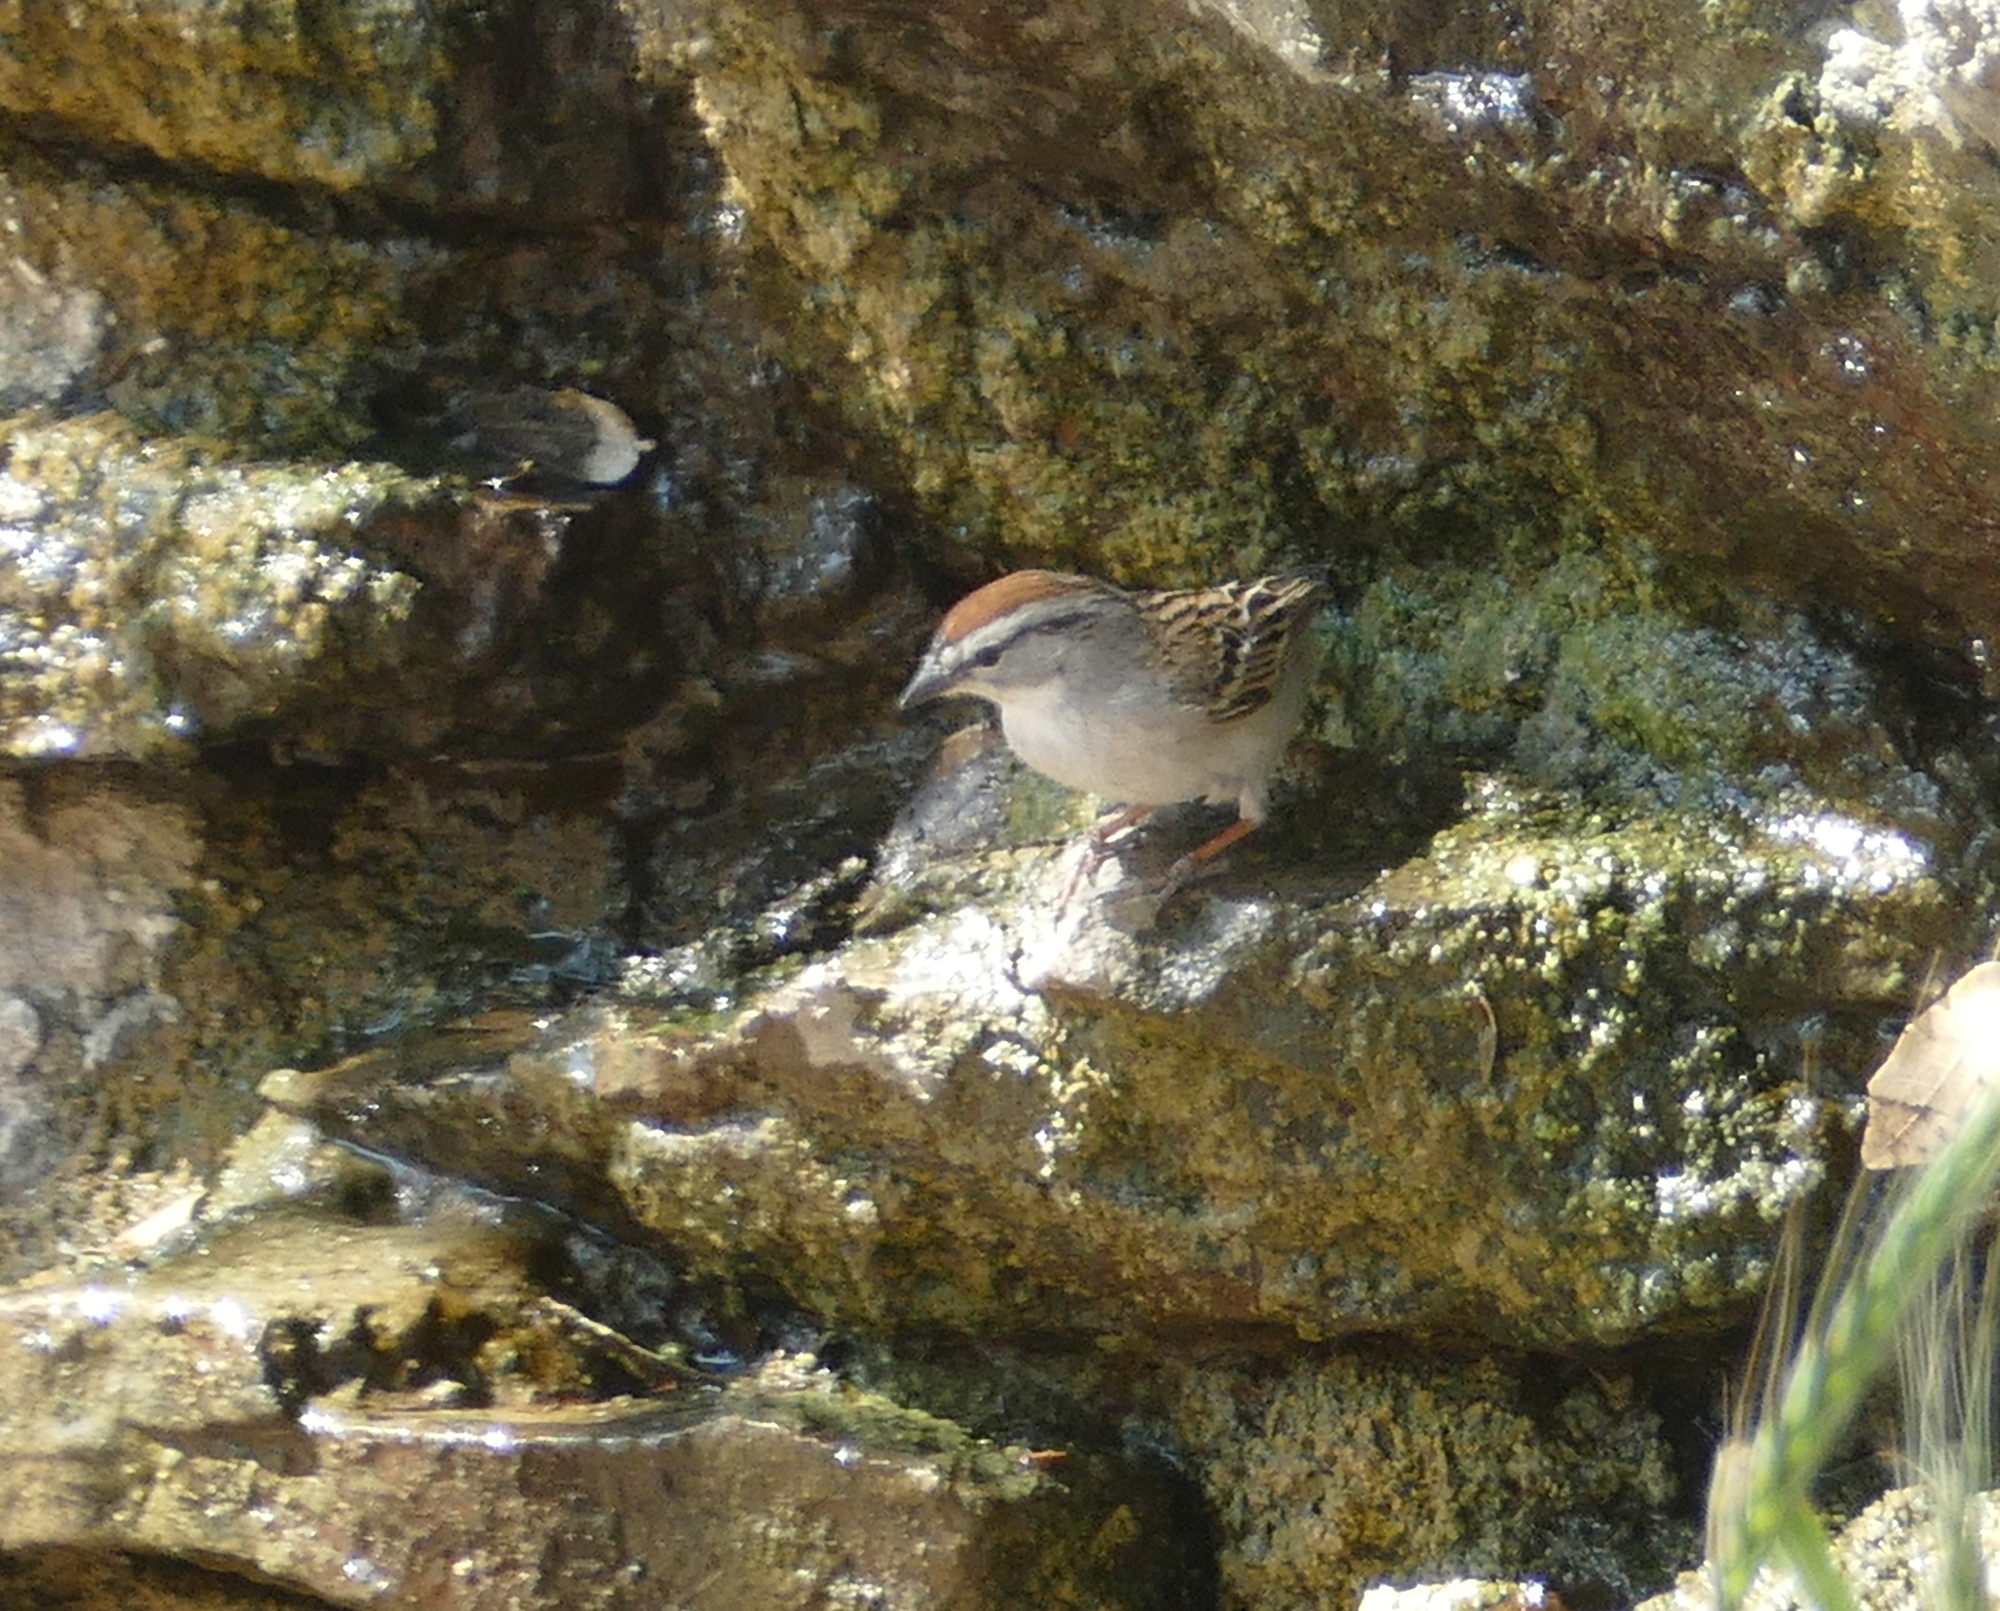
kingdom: Animalia
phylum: Chordata
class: Aves
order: Passeriformes
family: Passerellidae
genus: Spizella
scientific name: Spizella passerina
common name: Chipping sparrow
